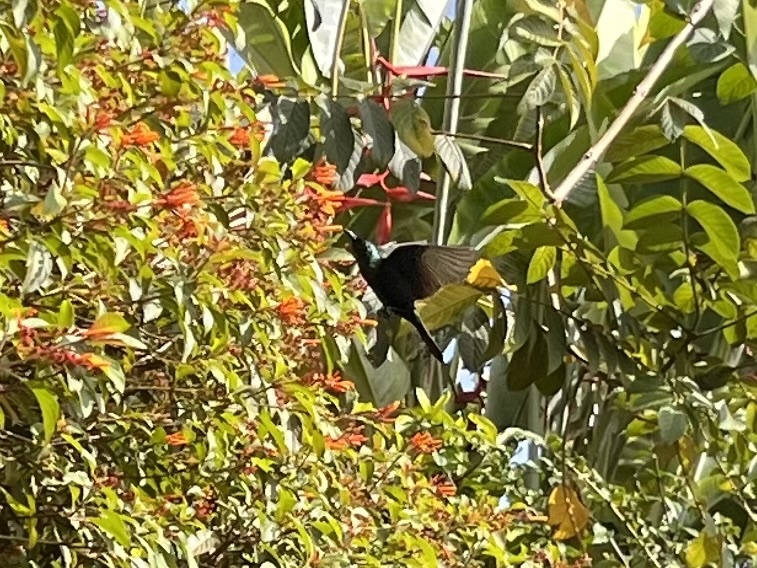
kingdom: Animalia
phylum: Chordata
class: Aves
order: Passeriformes
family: Nectariniidae
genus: Nectarinia
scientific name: Nectarinia kilimensis
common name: Bronzy sunbird
